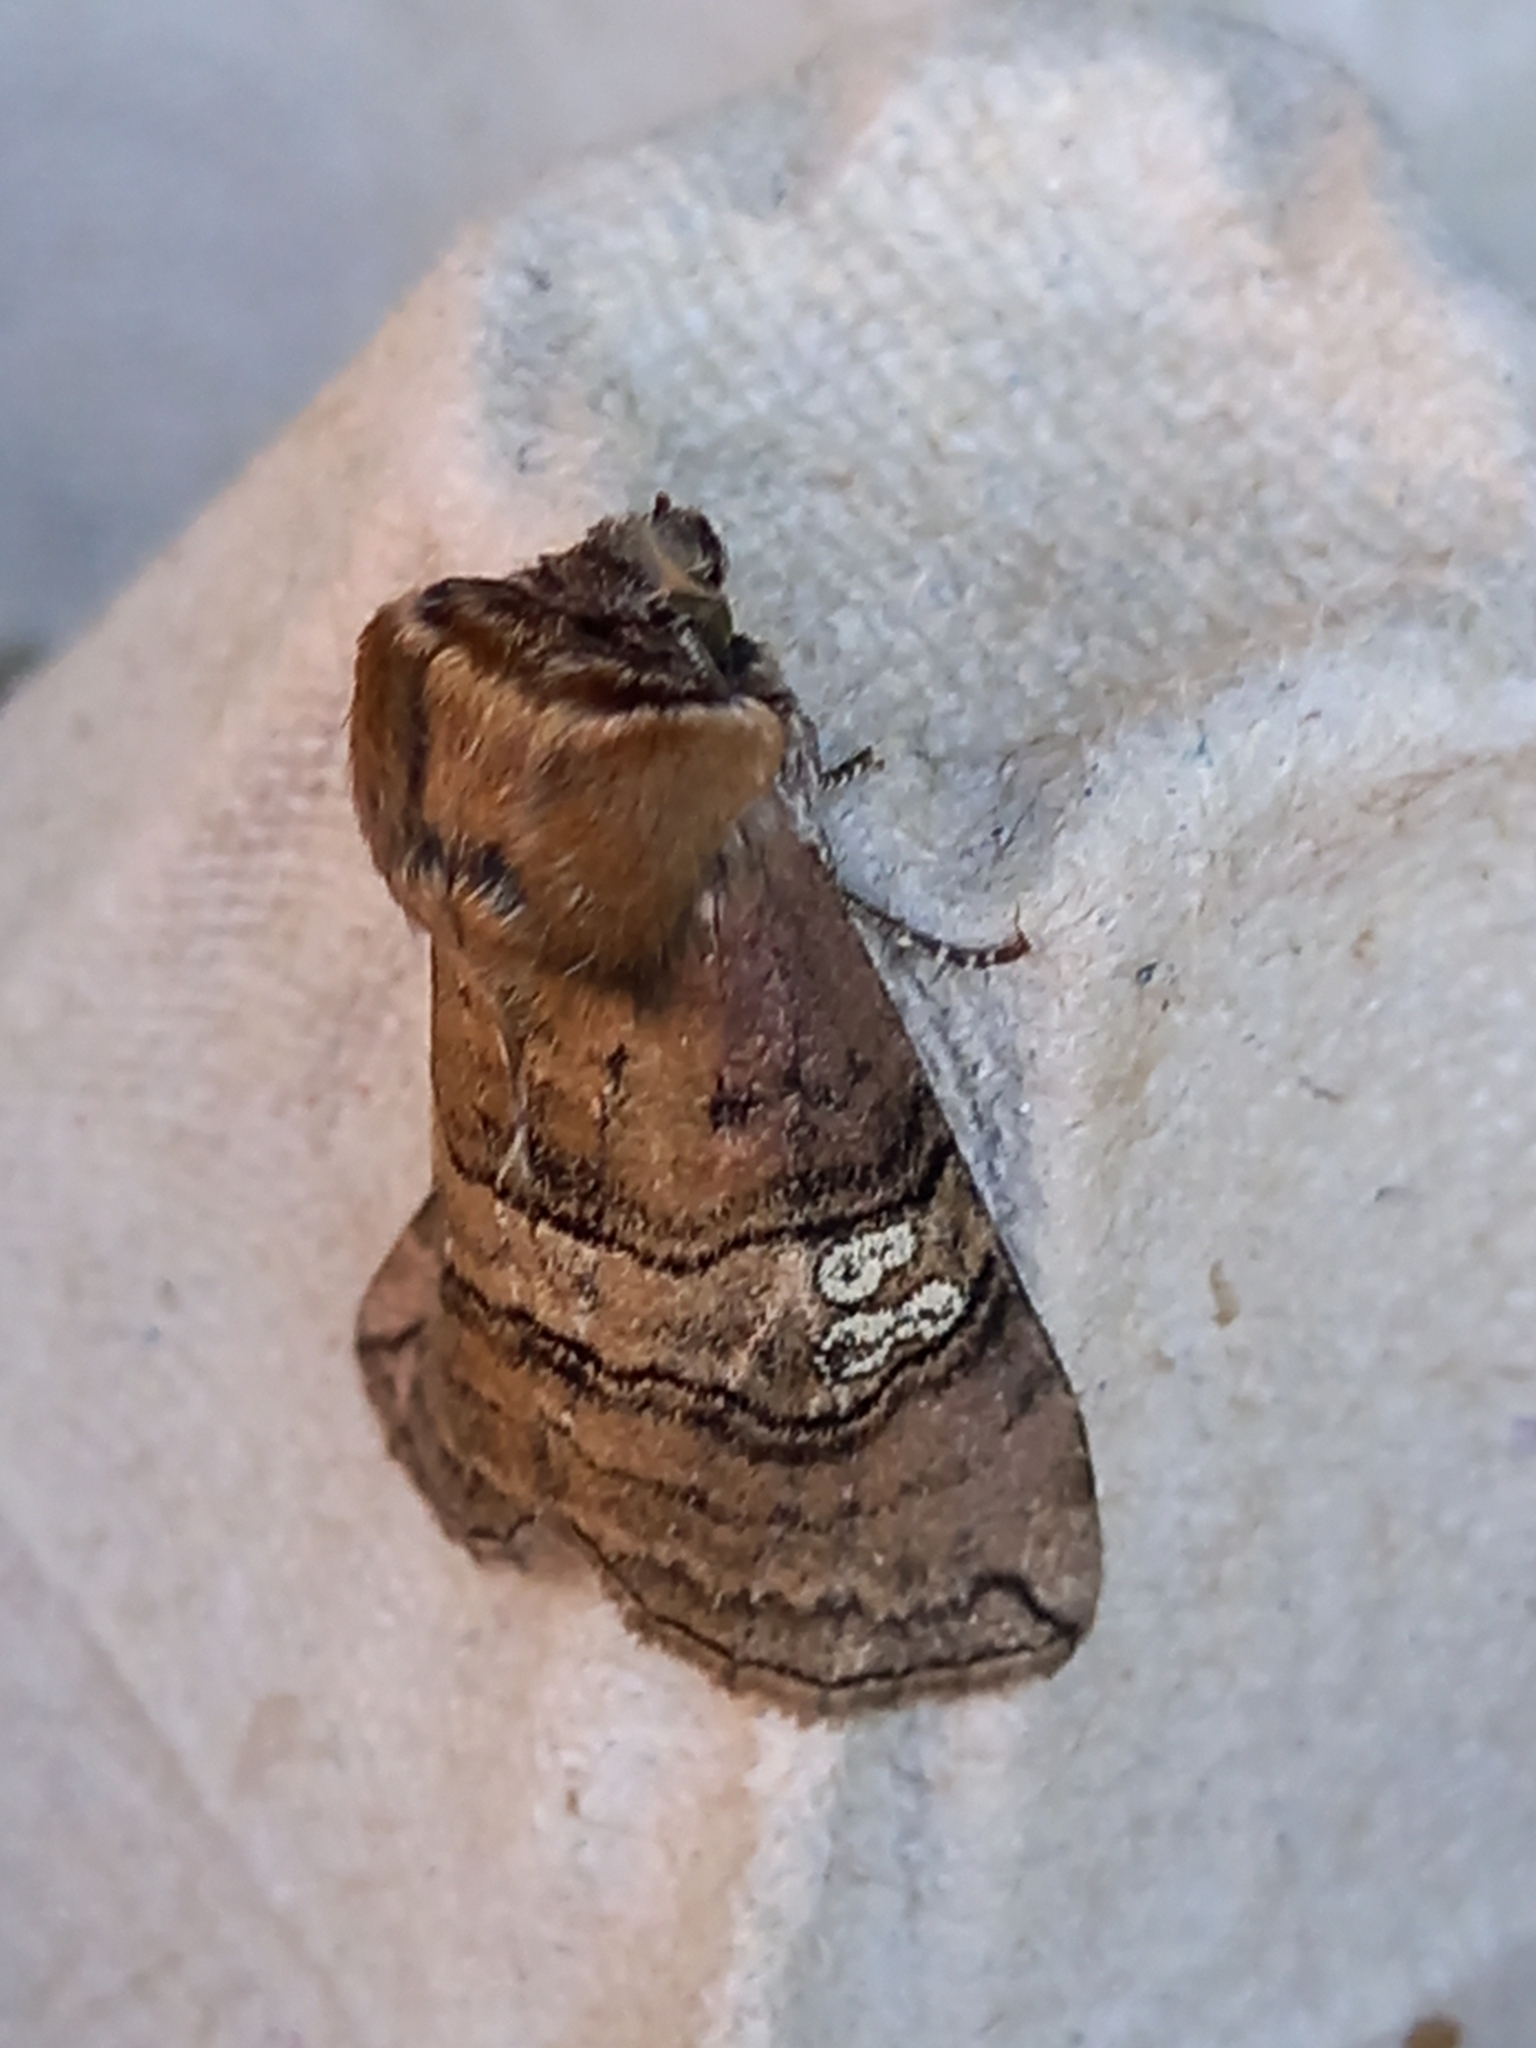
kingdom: Animalia
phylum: Arthropoda
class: Insecta
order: Lepidoptera
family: Drepanidae
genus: Tethea
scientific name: Tethea ocularis
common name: Figure of eighty
